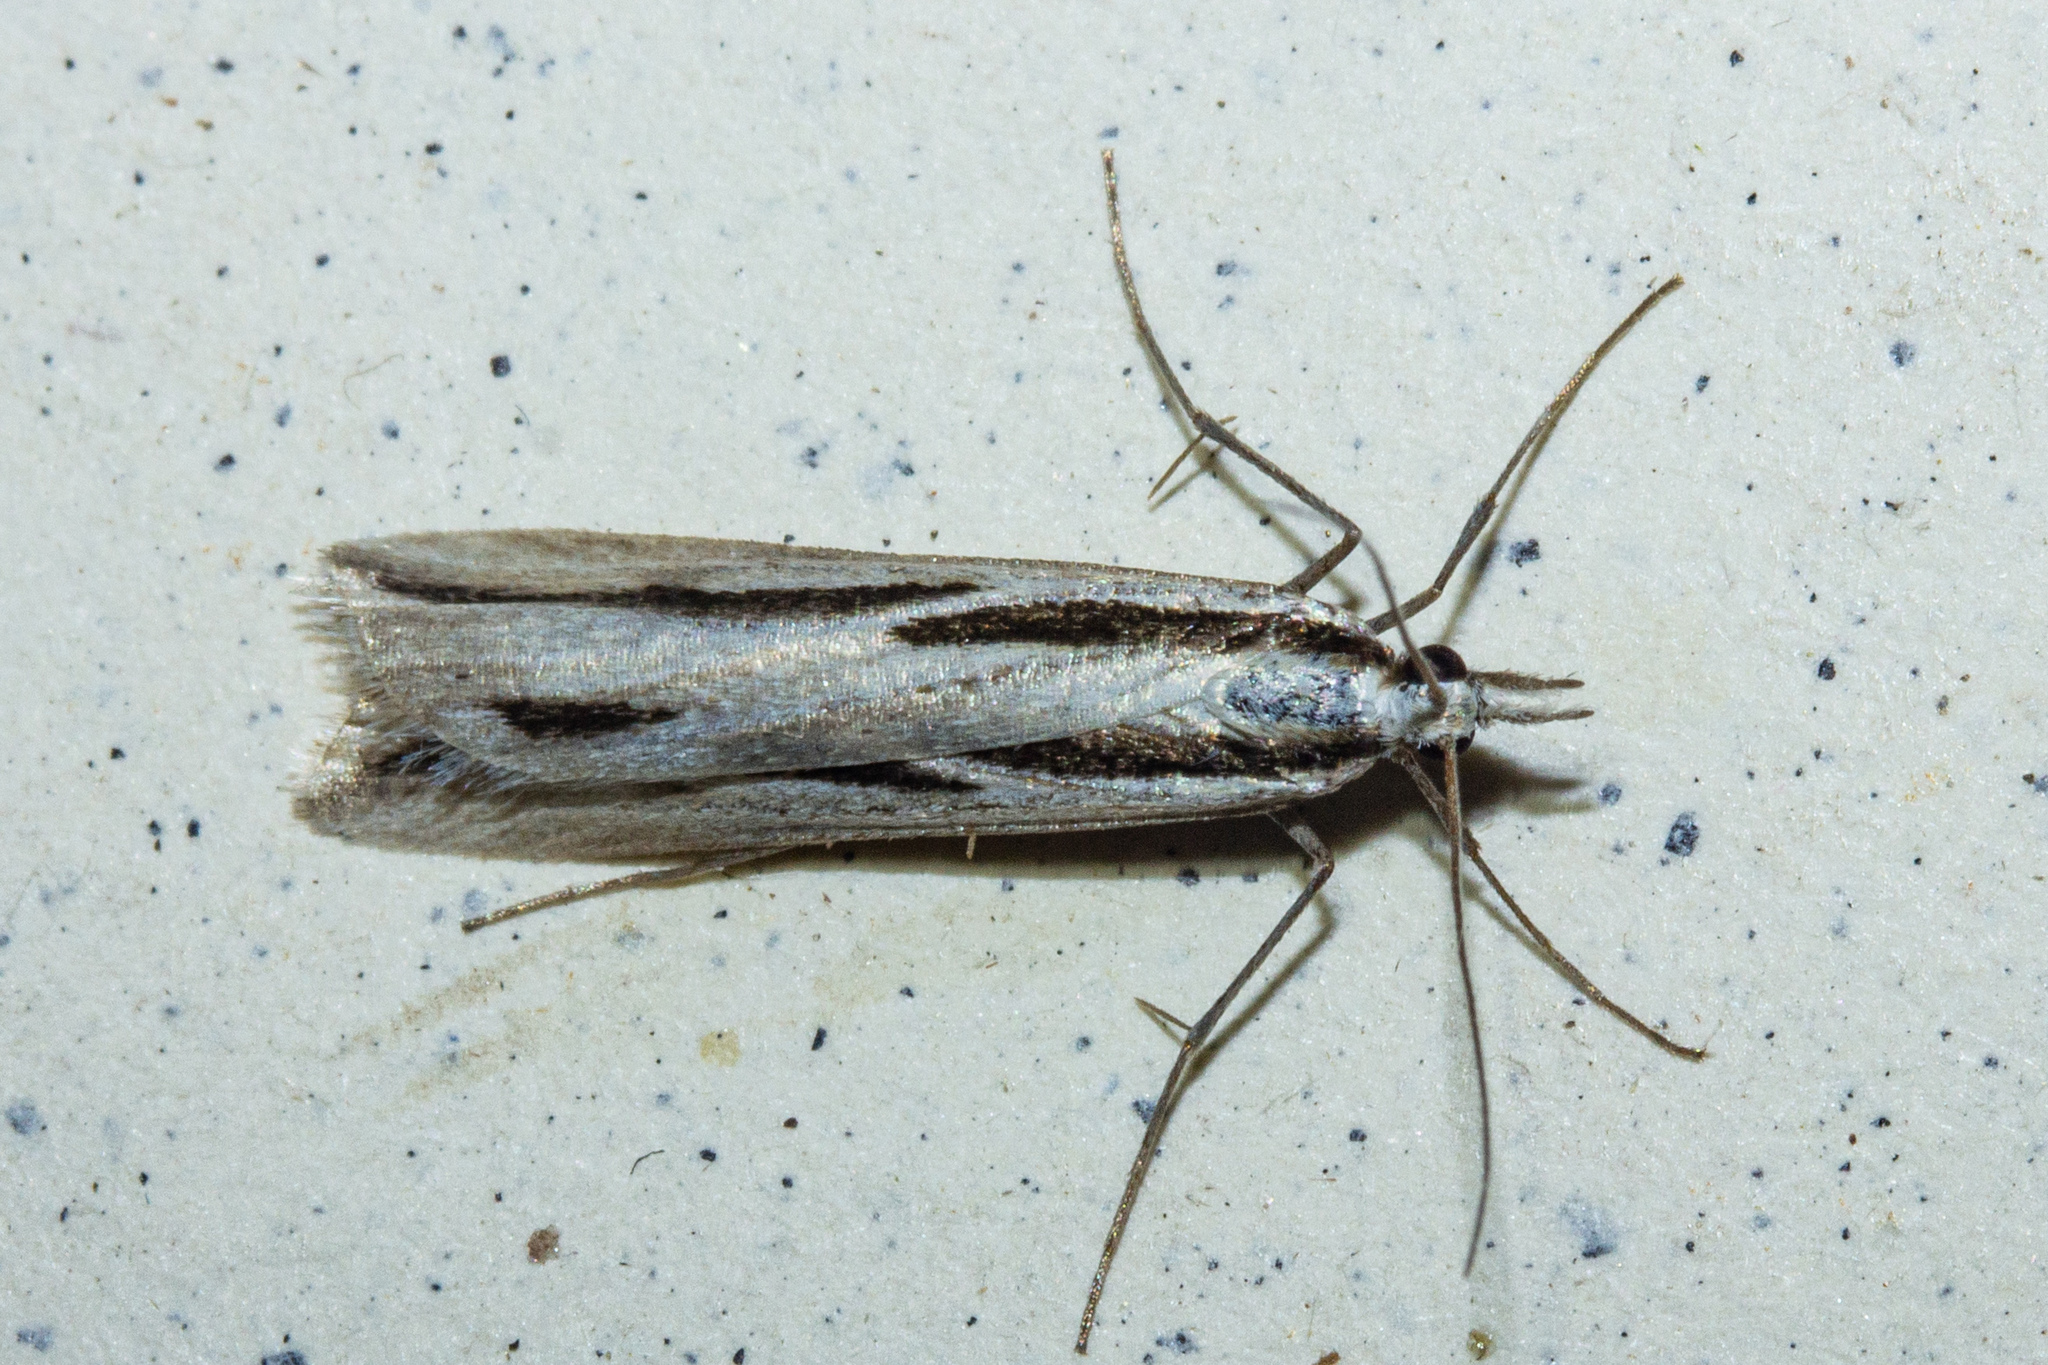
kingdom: Animalia
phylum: Arthropoda
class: Insecta
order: Lepidoptera
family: Crambidae
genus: Scoparia
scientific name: Scoparia claranota
